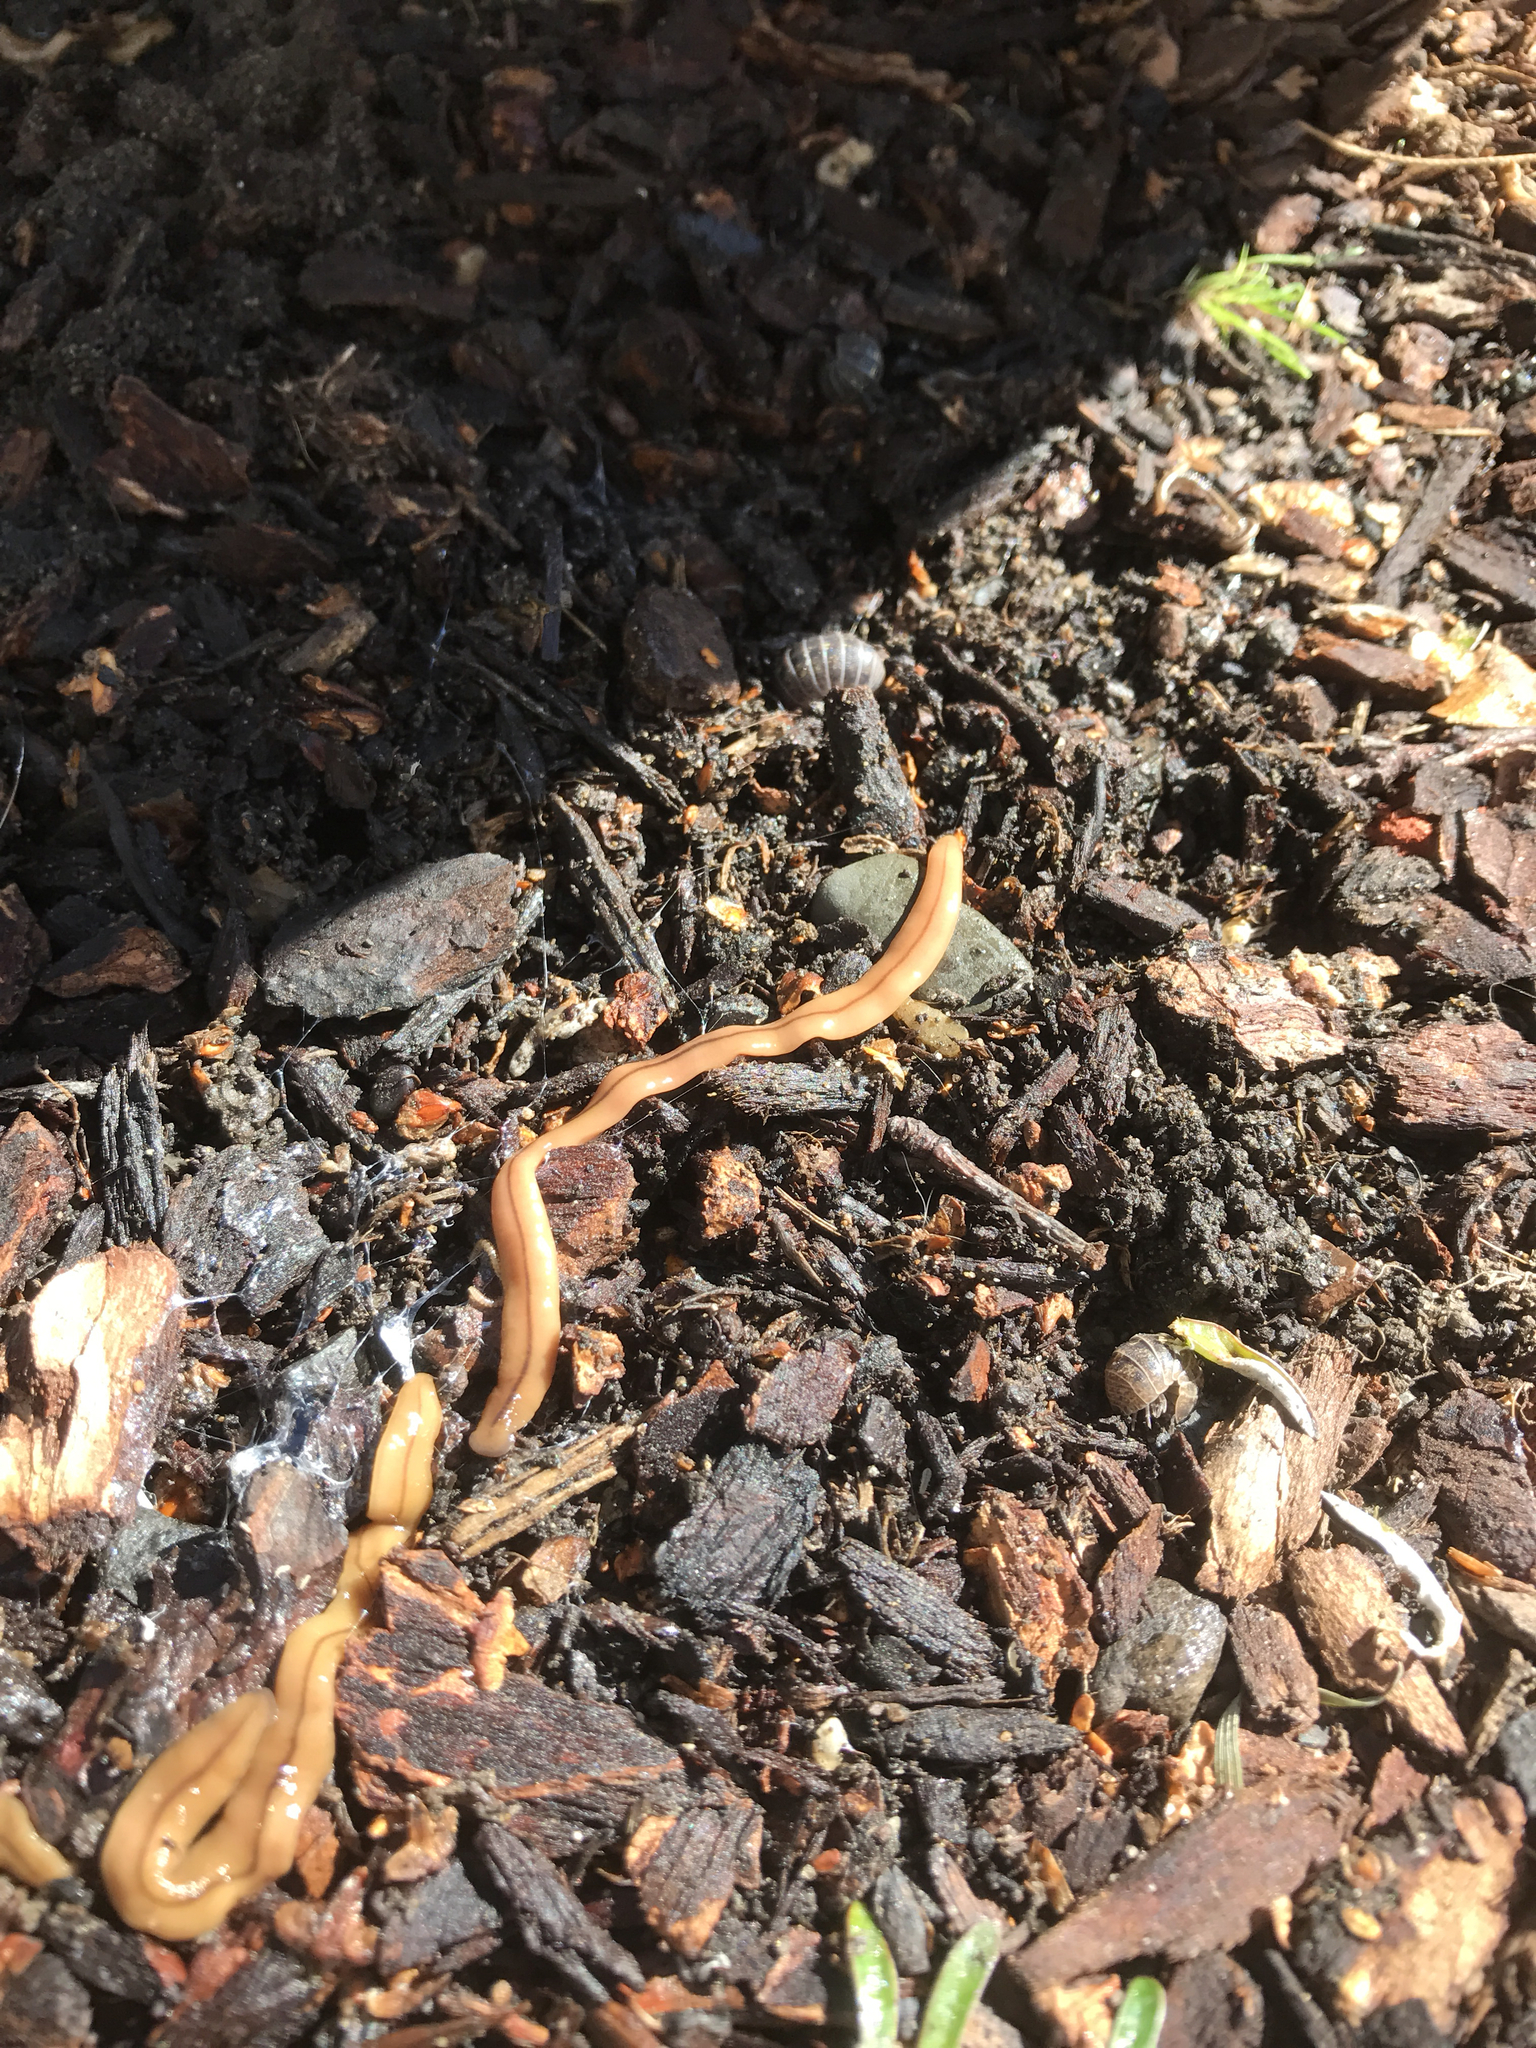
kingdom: Animalia
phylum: Platyhelminthes
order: Tricladida
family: Geoplanidae
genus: Bipalium
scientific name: Bipalium adventitium
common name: Land planarian
